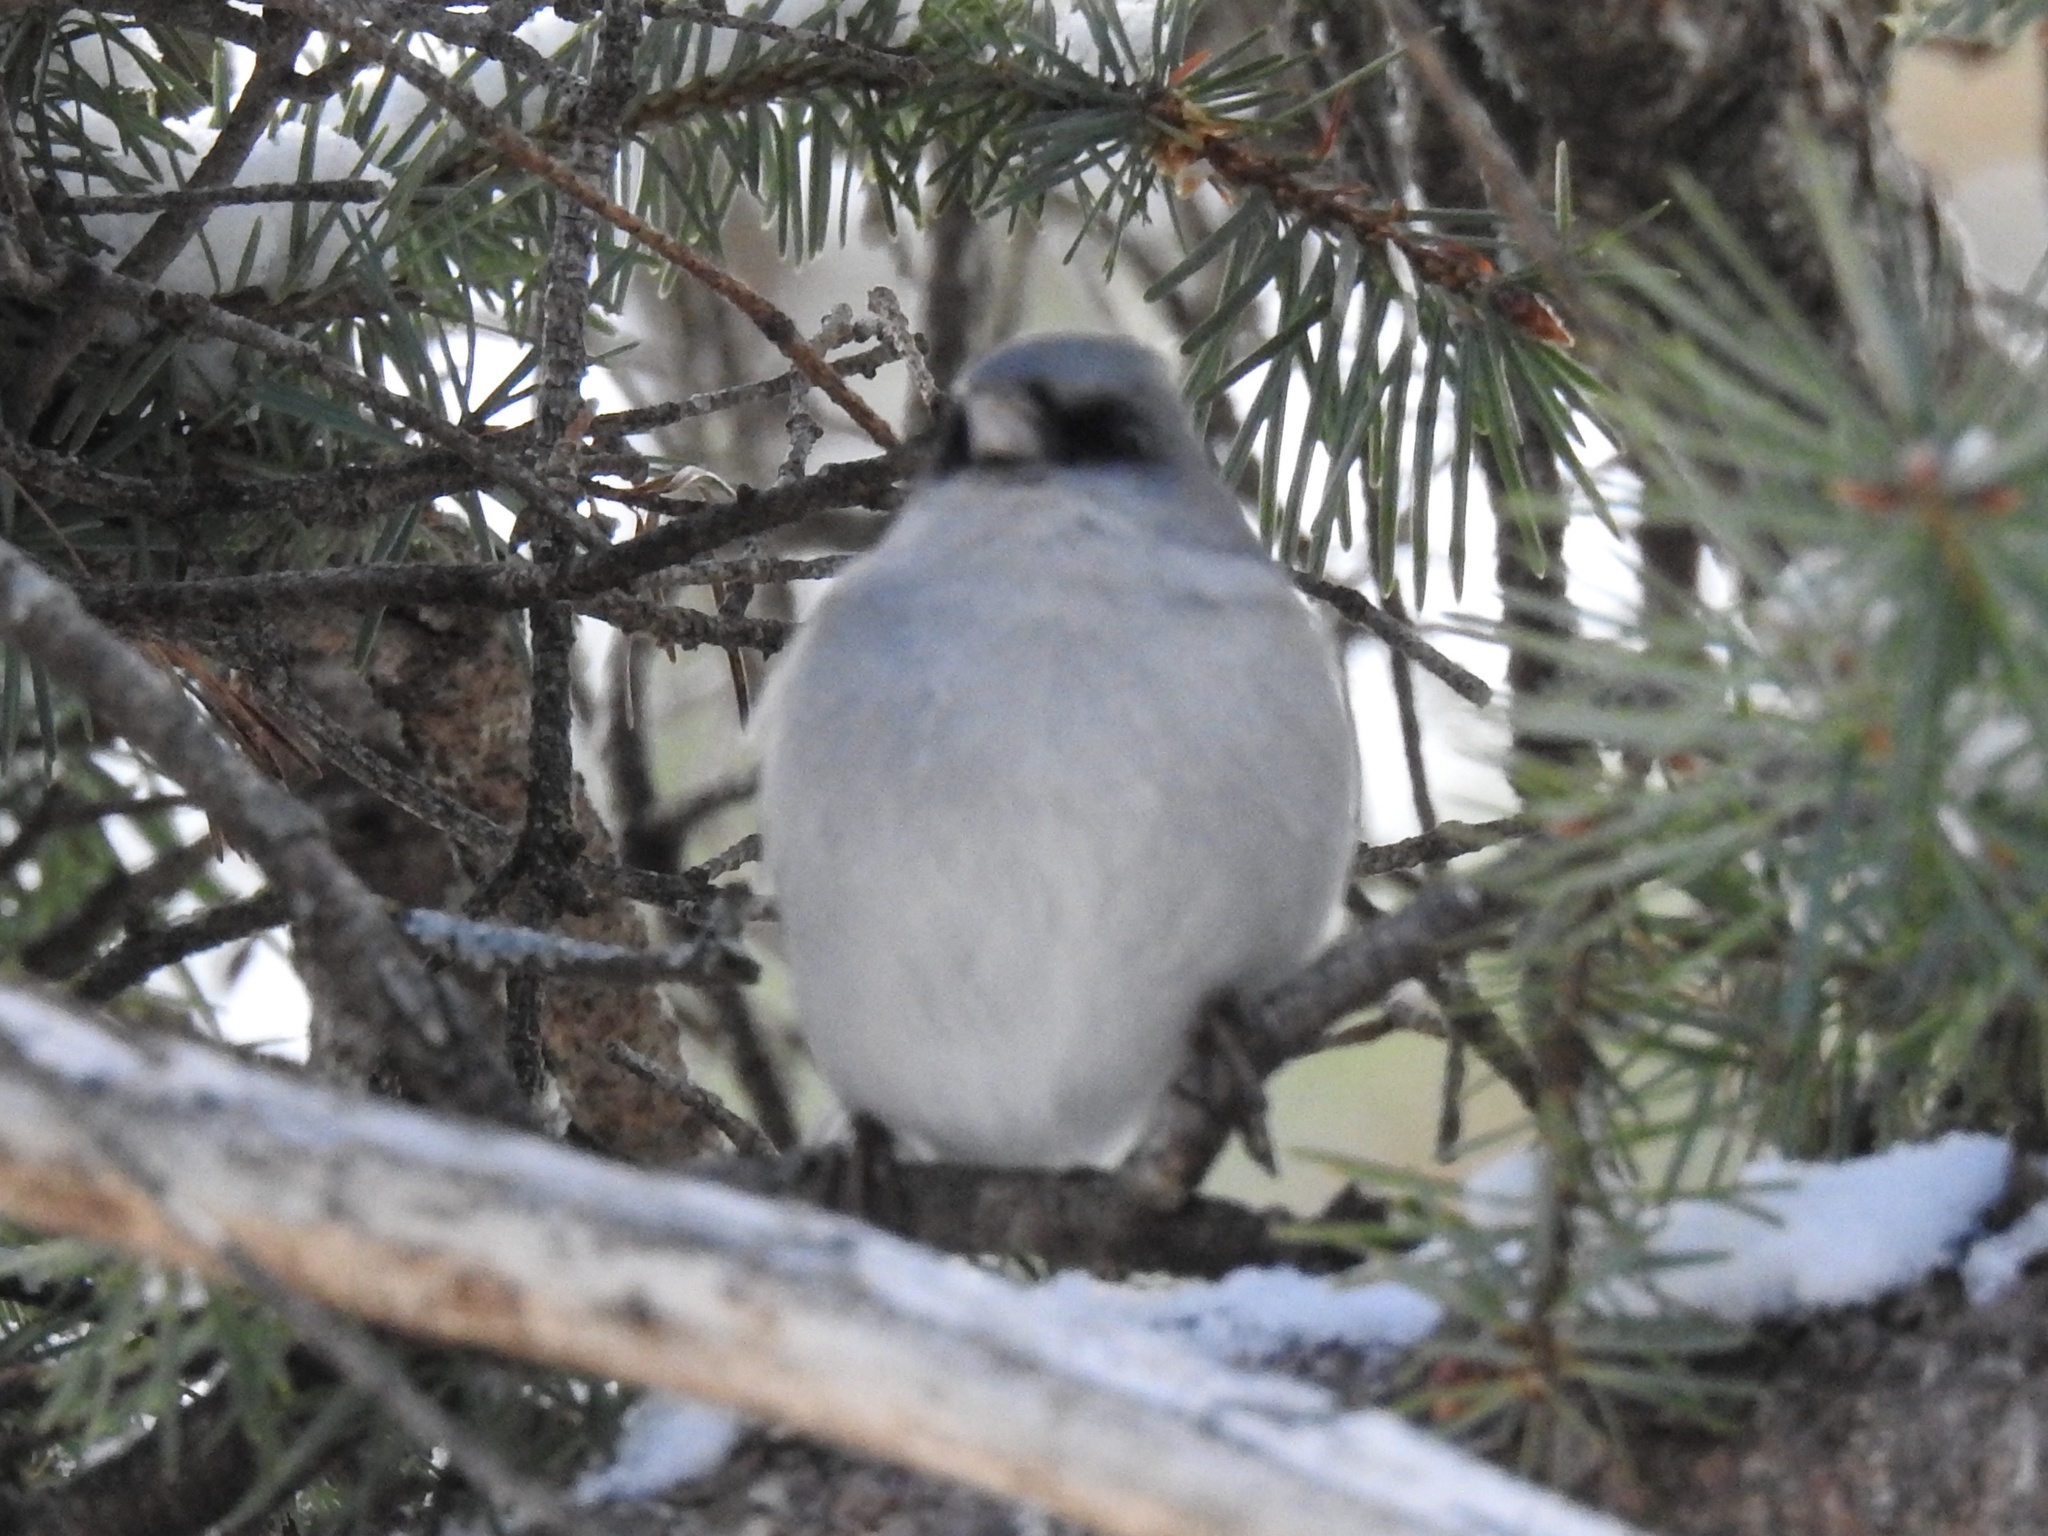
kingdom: Animalia
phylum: Chordata
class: Aves
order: Passeriformes
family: Passerellidae
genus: Junco
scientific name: Junco hyemalis
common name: Dark-eyed junco
